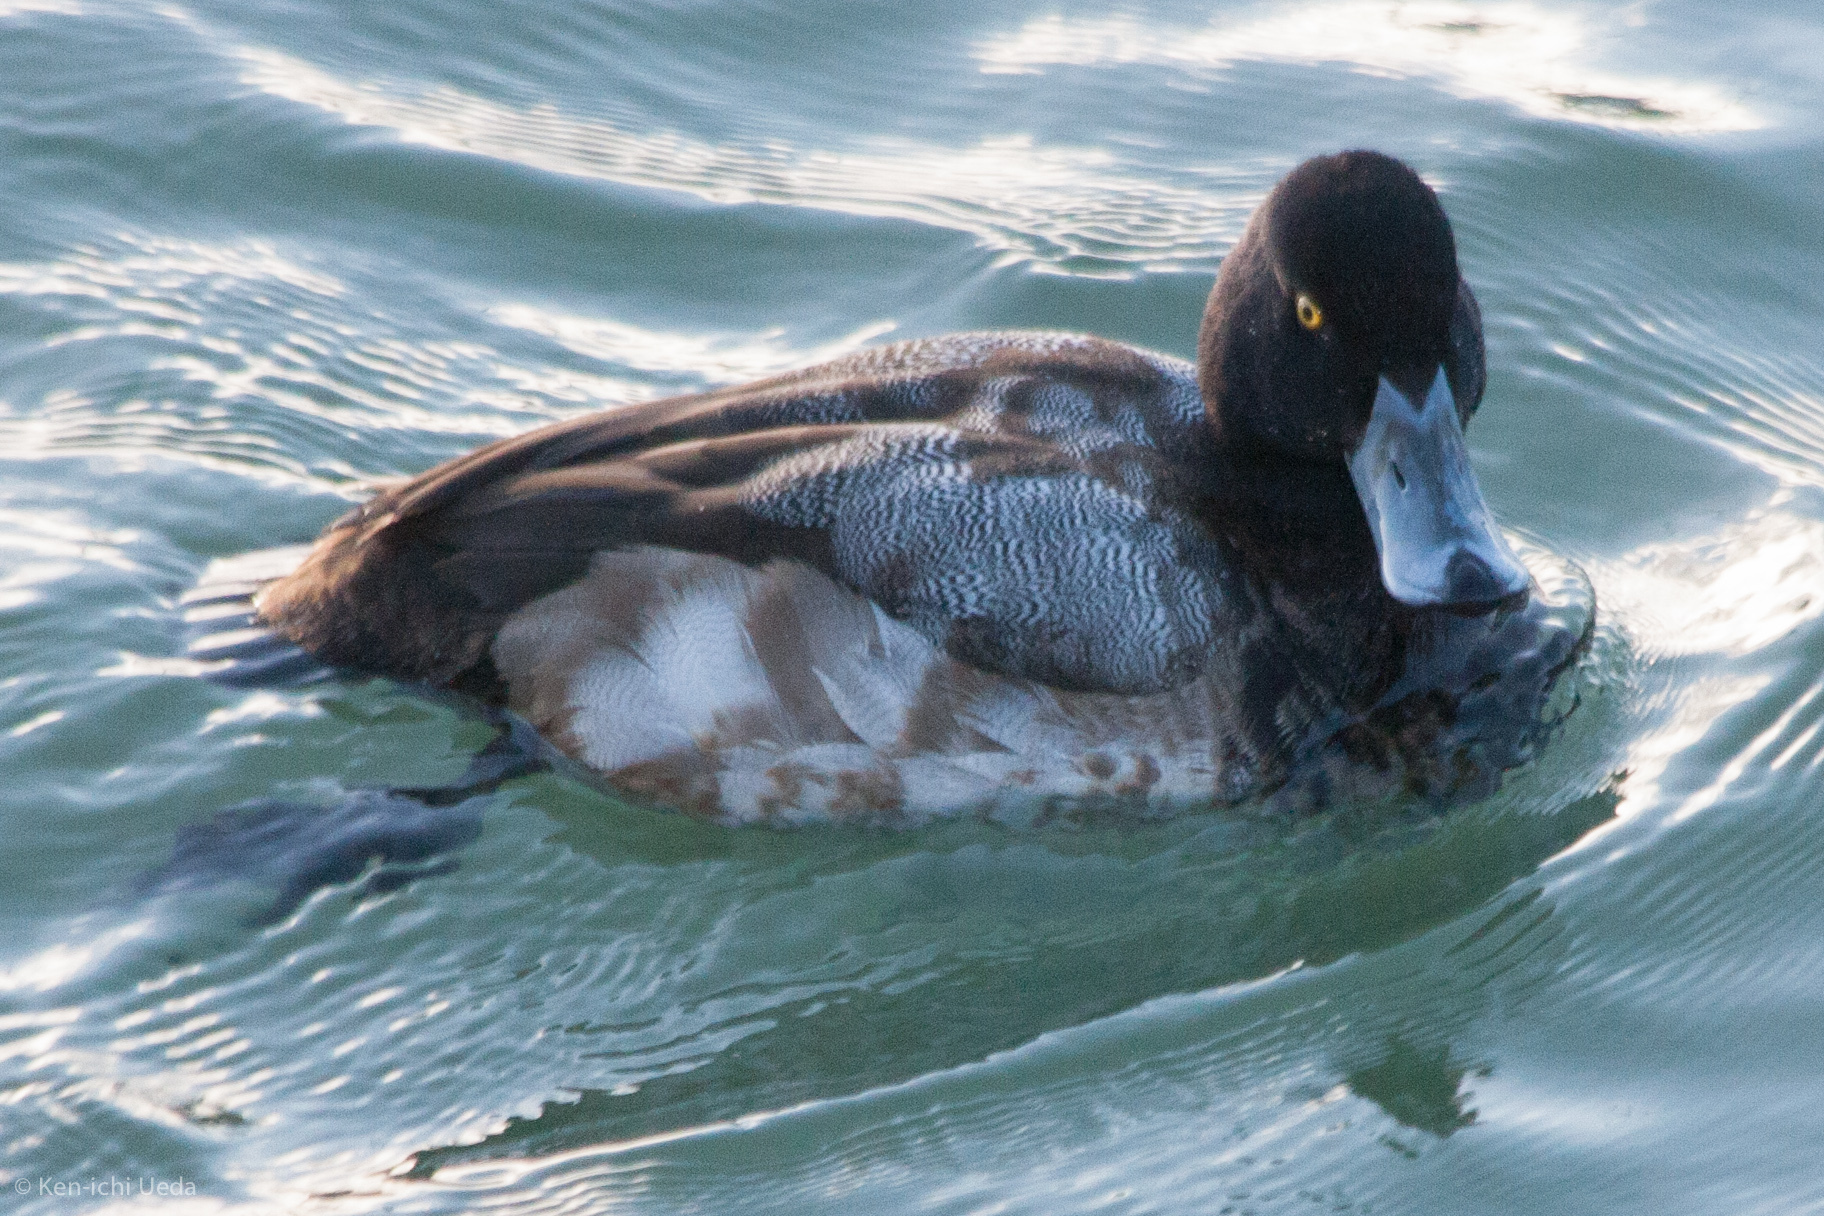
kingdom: Animalia
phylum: Chordata
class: Aves
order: Anseriformes
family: Anatidae
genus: Aythya
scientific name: Aythya marila
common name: Greater scaup
